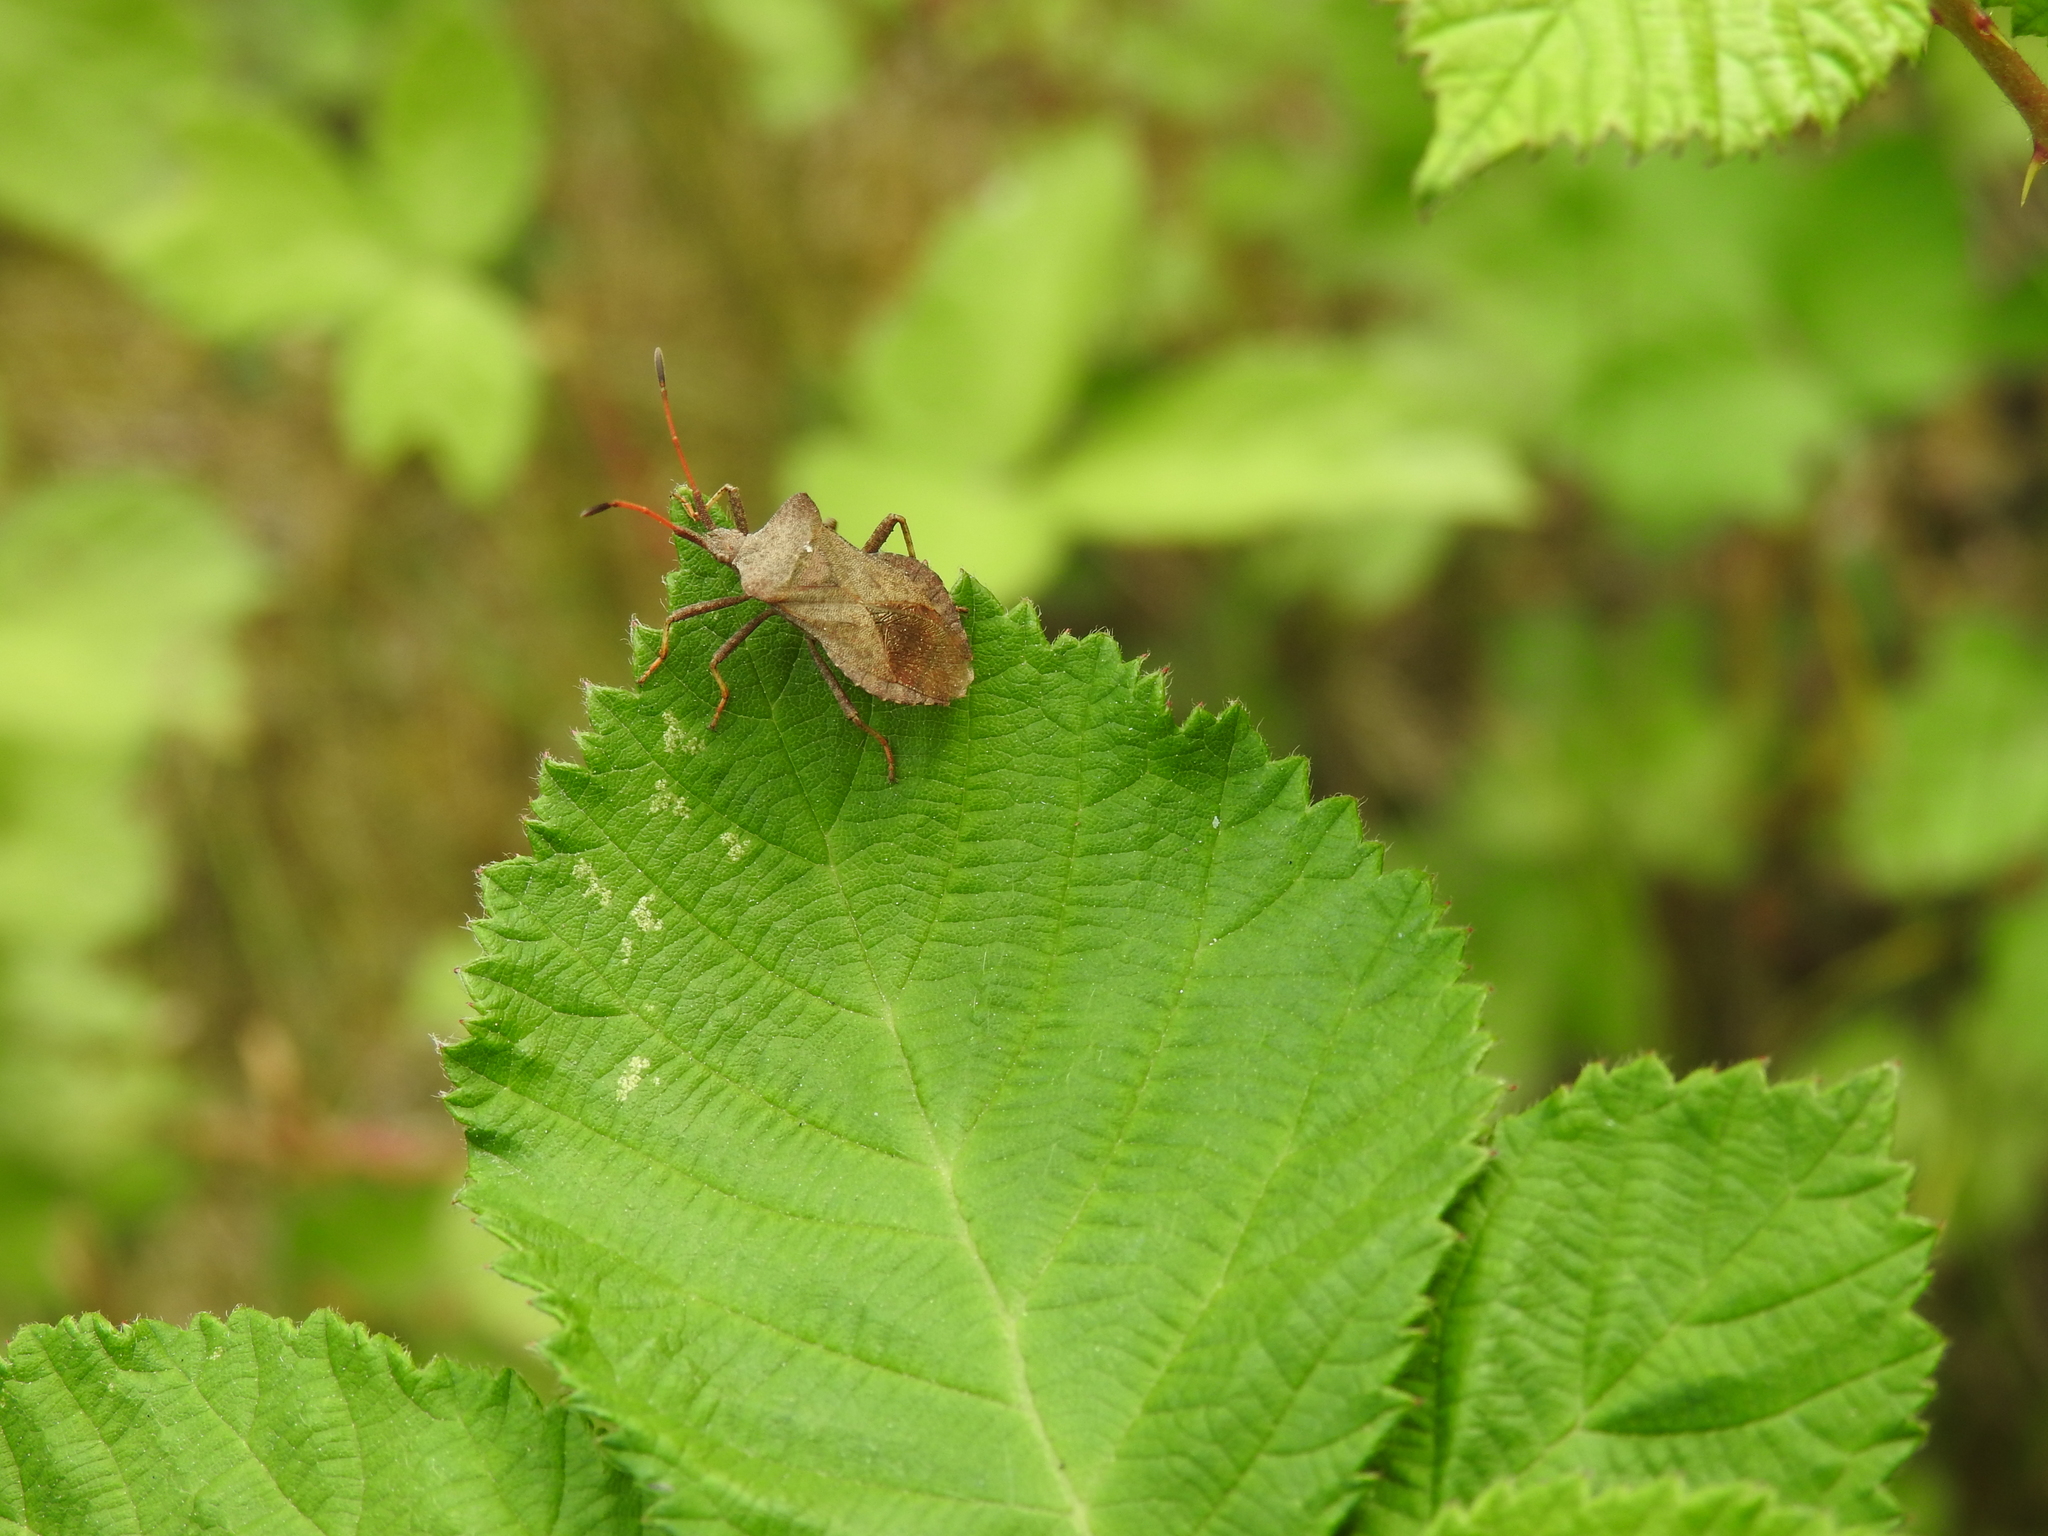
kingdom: Animalia
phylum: Arthropoda
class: Insecta
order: Hemiptera
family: Coreidae
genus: Coreus
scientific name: Coreus marginatus
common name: Dock bug
